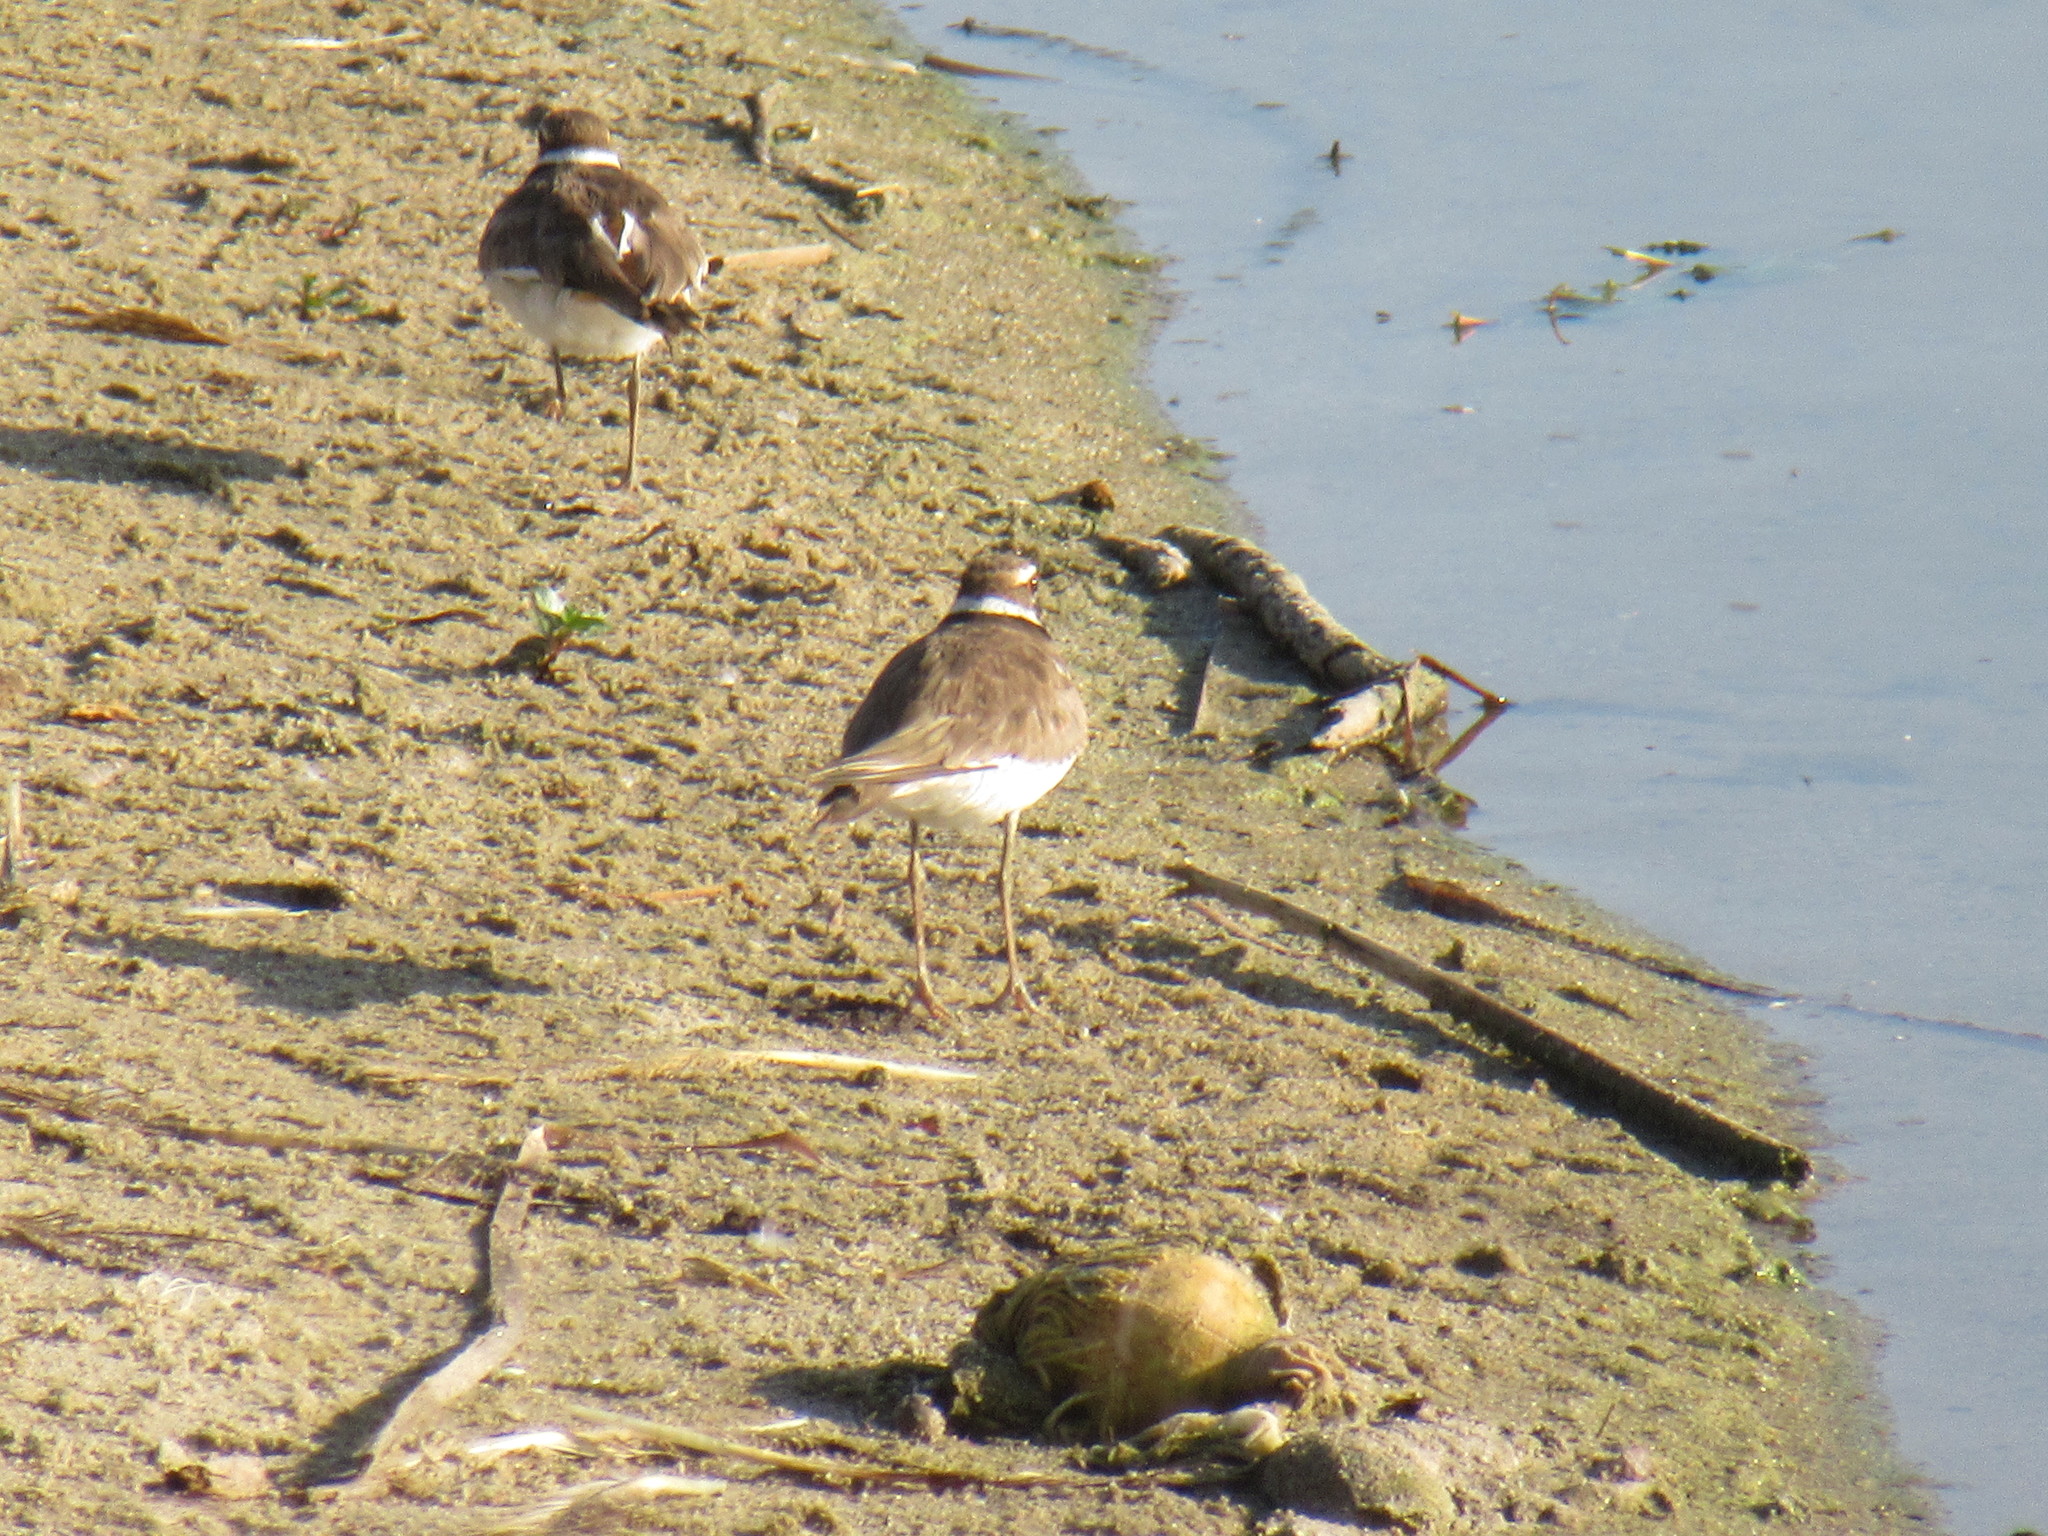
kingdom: Animalia
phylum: Chordata
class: Aves
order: Charadriiformes
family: Charadriidae
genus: Charadrius
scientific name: Charadrius vociferus
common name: Killdeer
